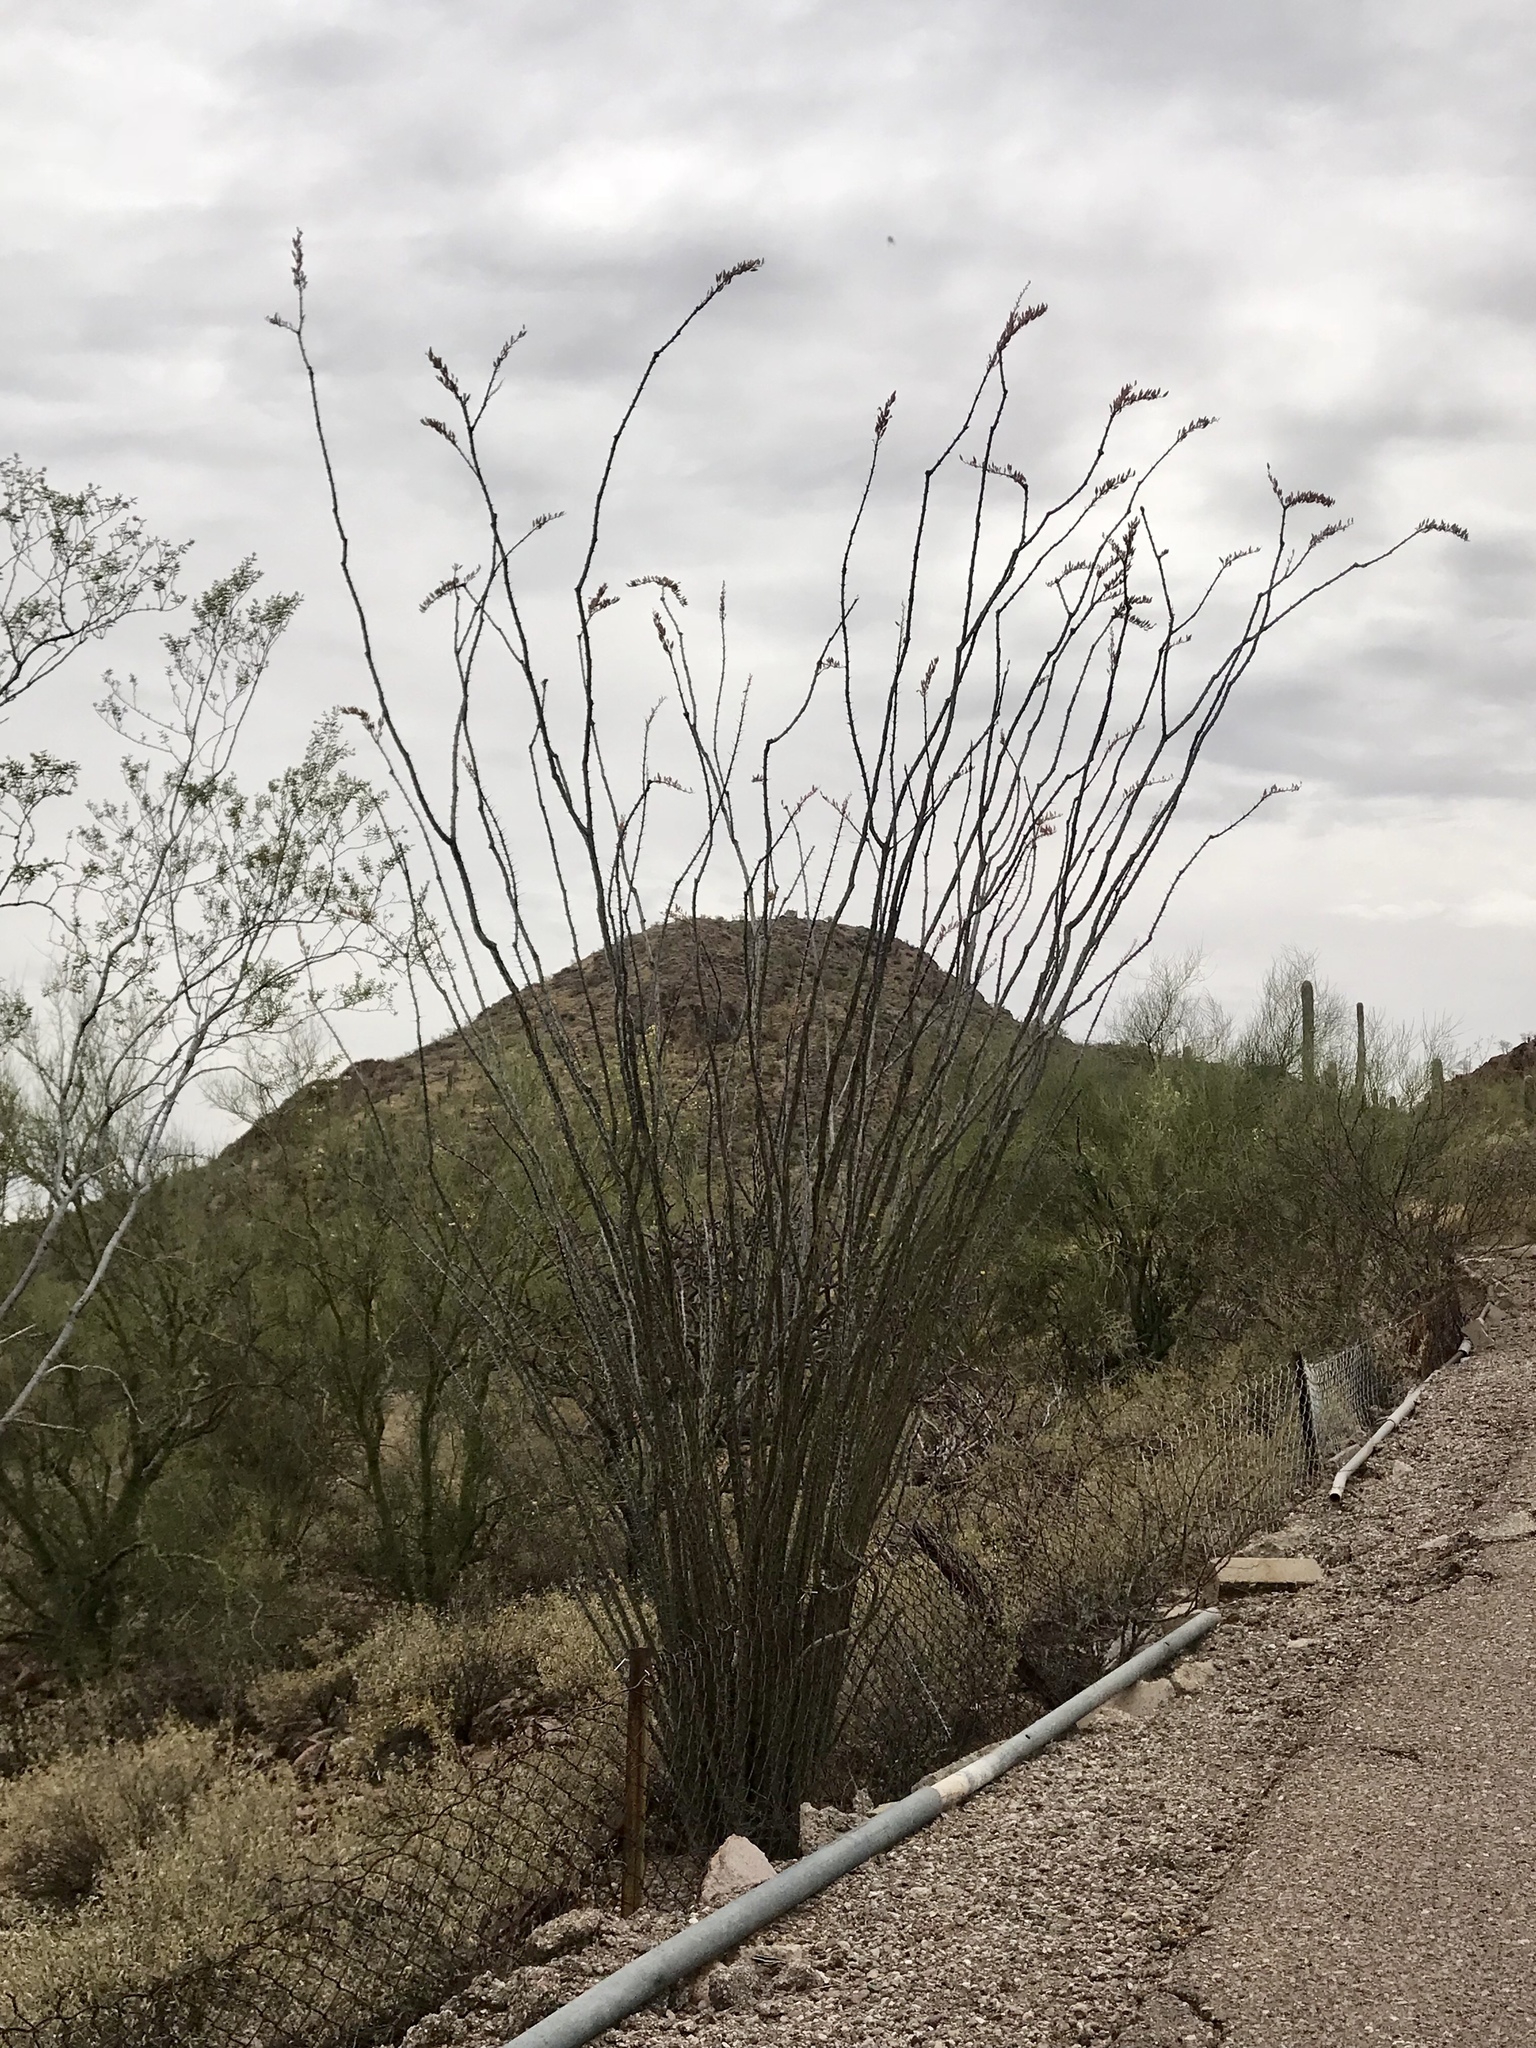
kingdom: Plantae
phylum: Tracheophyta
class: Magnoliopsida
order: Ericales
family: Fouquieriaceae
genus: Fouquieria
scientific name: Fouquieria splendens
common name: Vine-cactus
